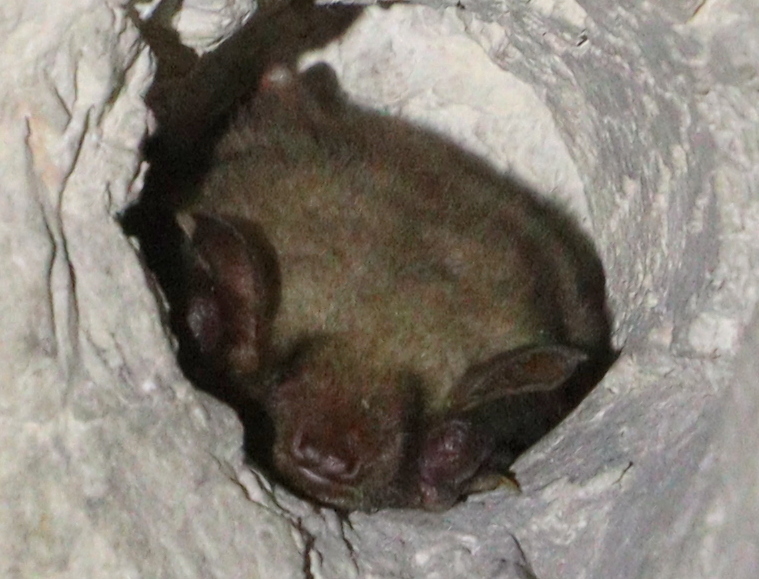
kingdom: Animalia
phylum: Chordata
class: Mammalia
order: Chiroptera
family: Vespertilionidae
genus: Myotis
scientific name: Myotis myotis
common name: Greater mouse-eared bat
